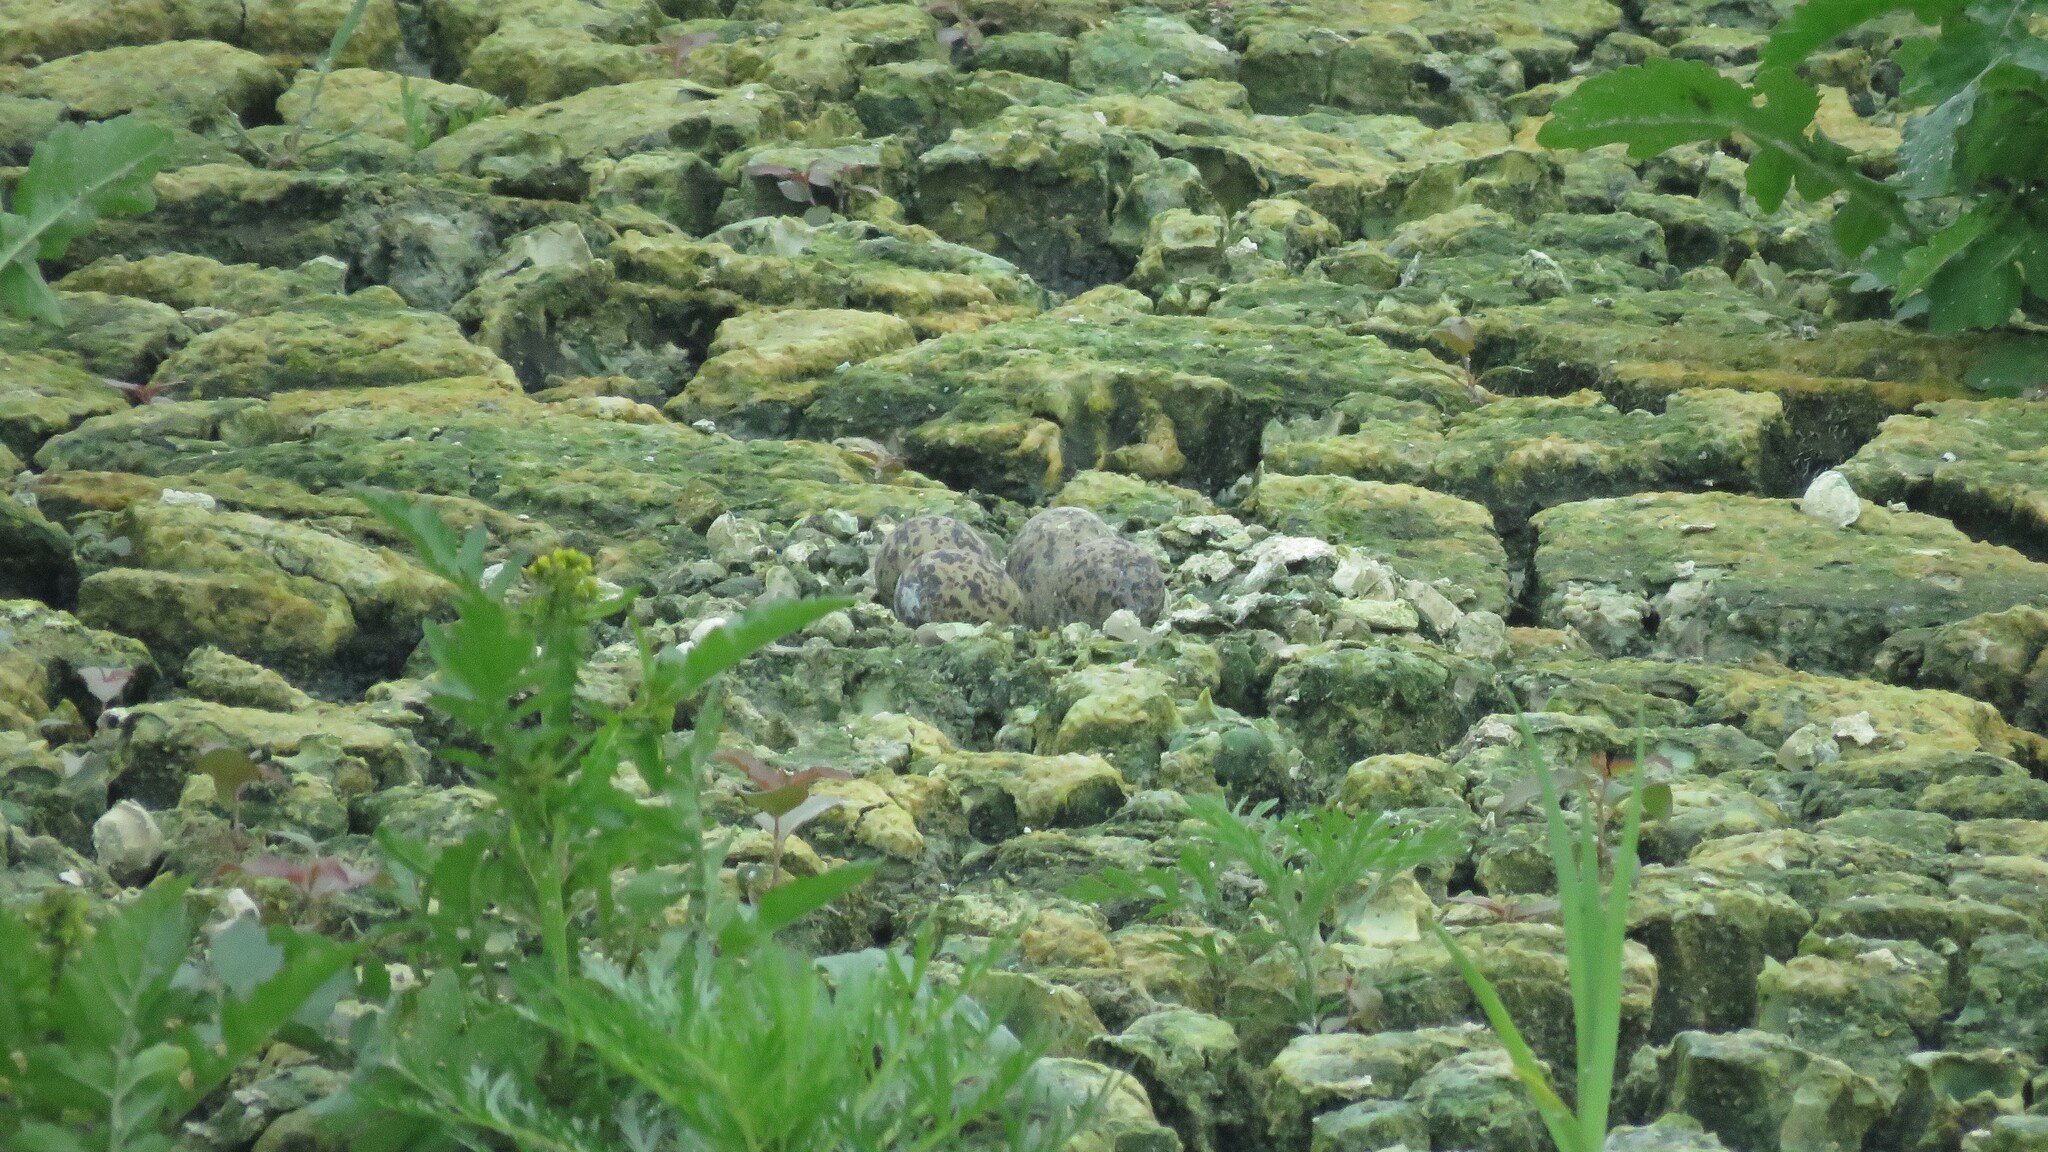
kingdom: Animalia
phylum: Chordata
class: Aves
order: Charadriiformes
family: Recurvirostridae
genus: Himantopus
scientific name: Himantopus mexicanus
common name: Black-necked stilt
